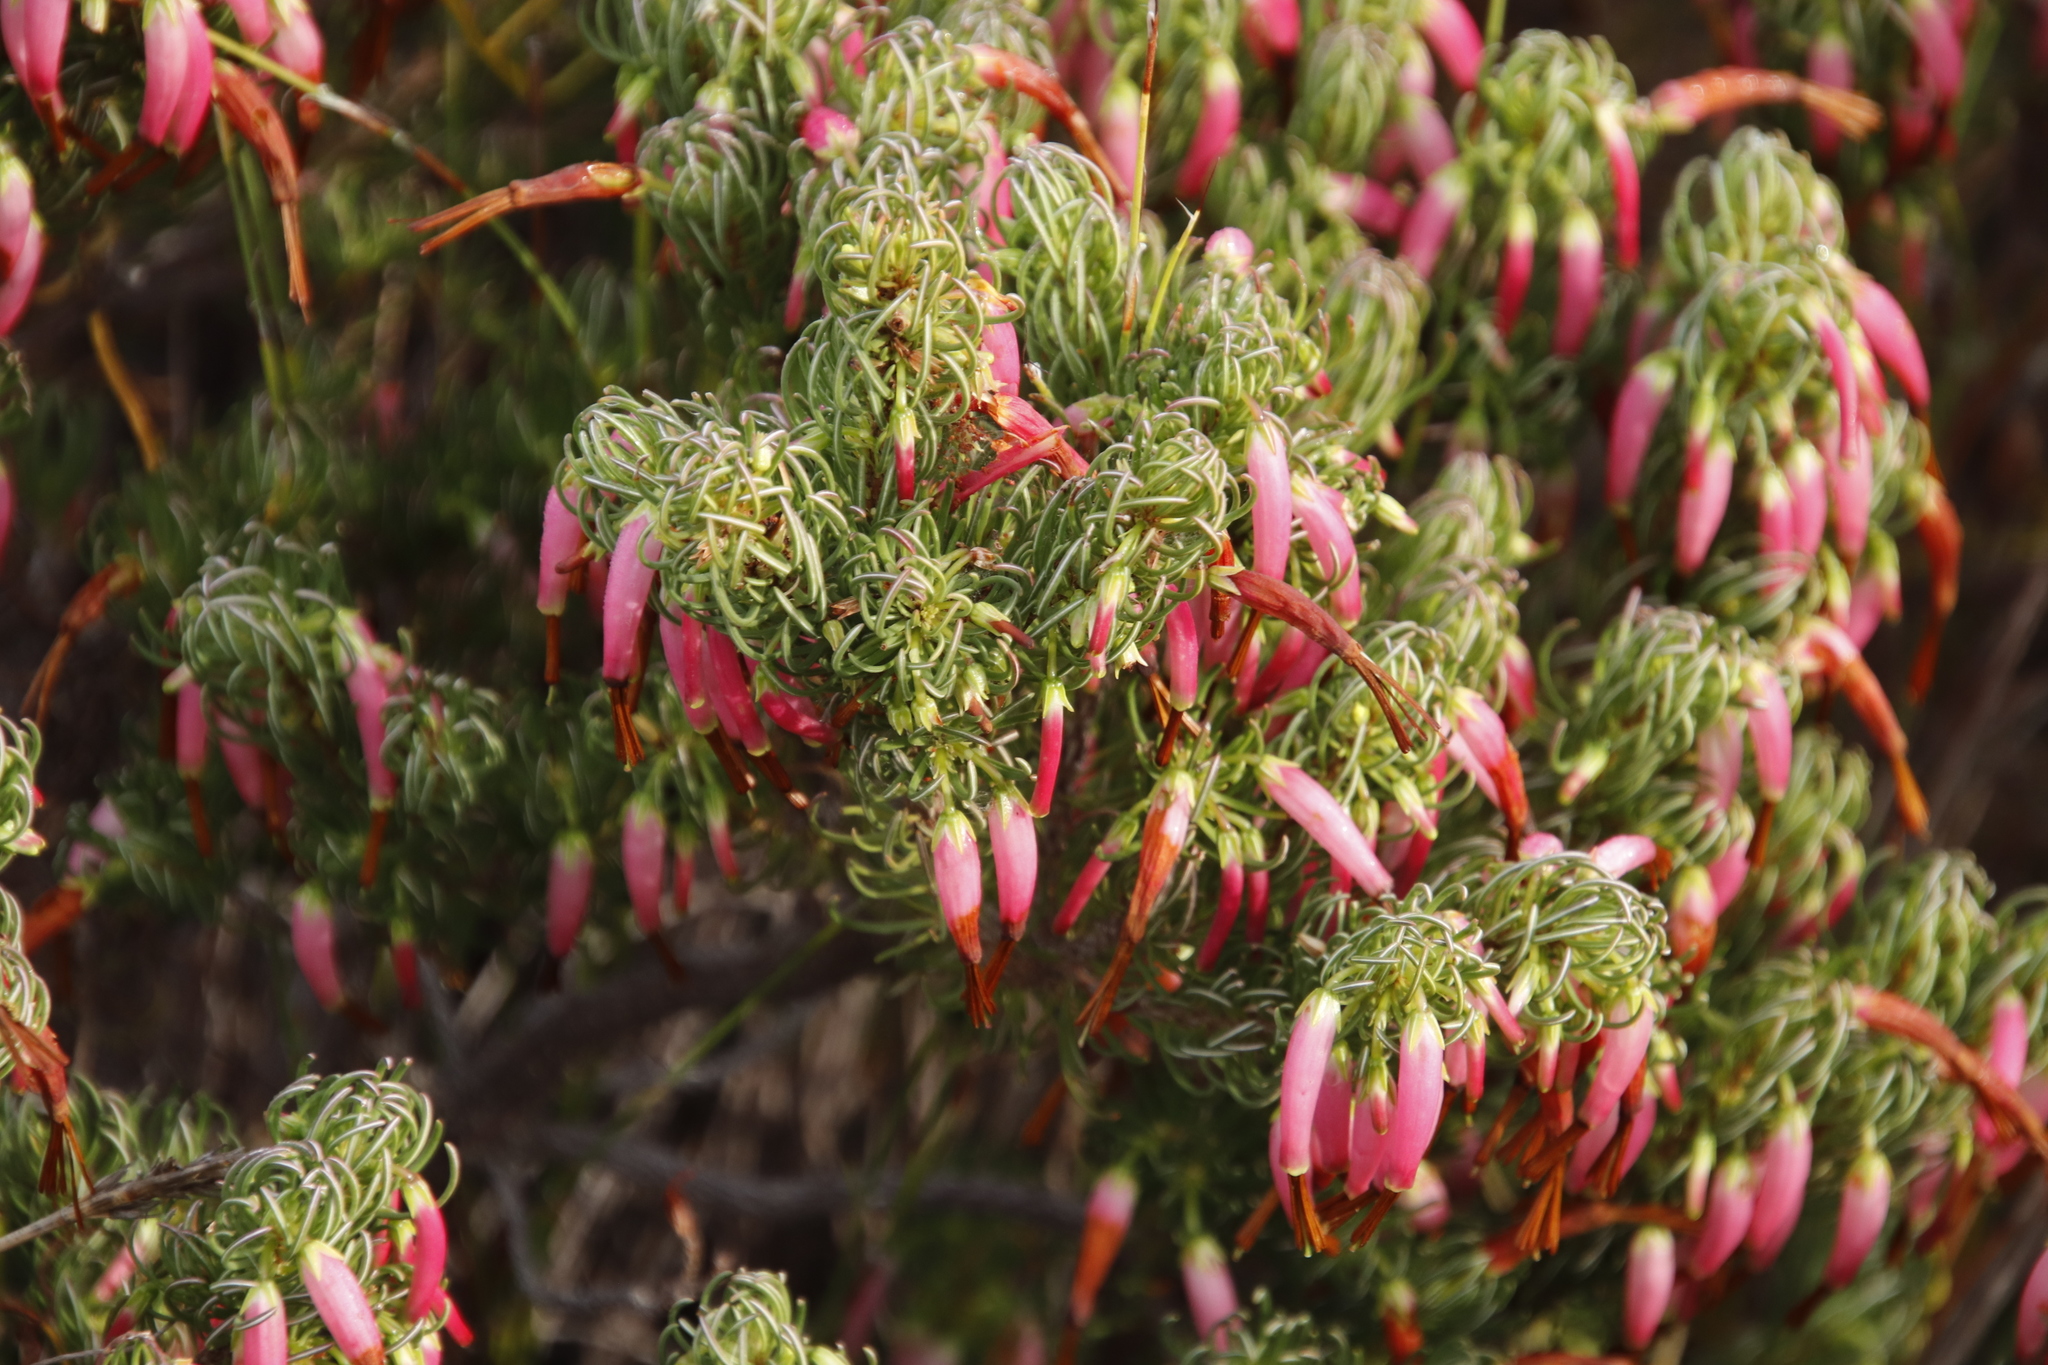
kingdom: Plantae
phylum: Tracheophyta
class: Magnoliopsida
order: Ericales
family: Ericaceae
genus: Erica
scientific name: Erica plukenetii
